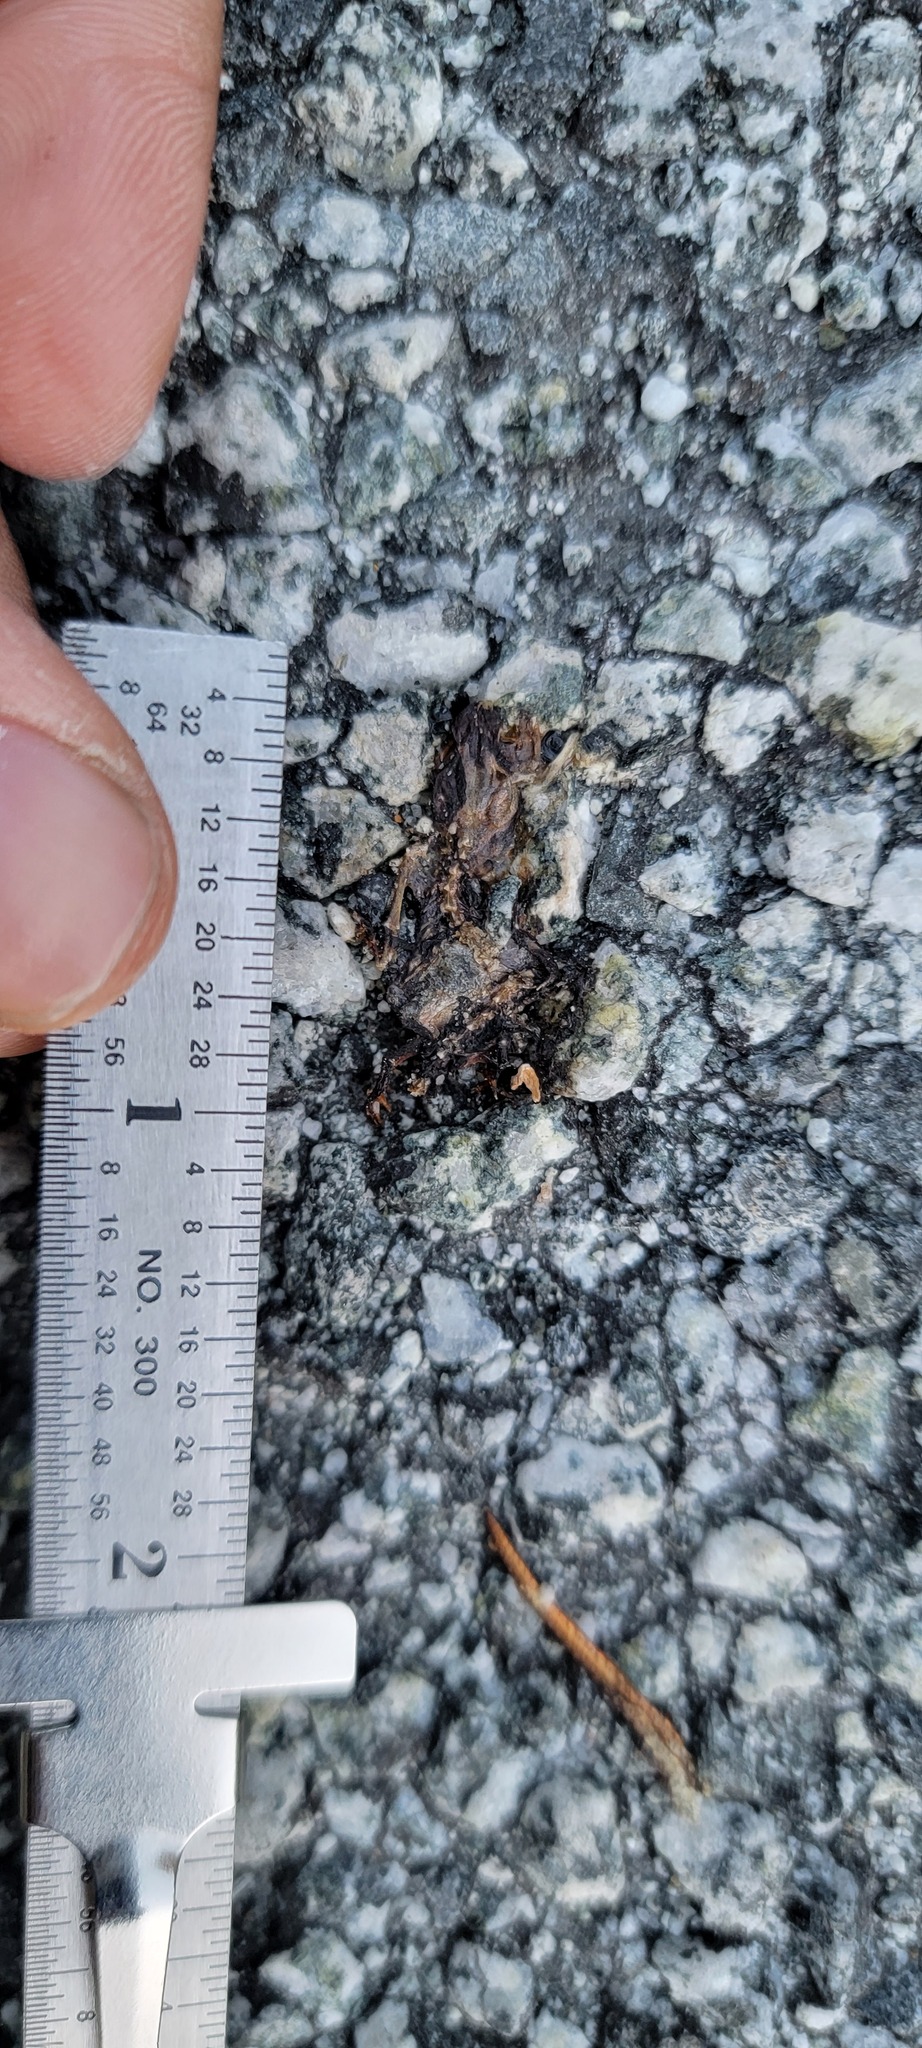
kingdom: Animalia
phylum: Chordata
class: Amphibia
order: Caudata
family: Salamandridae
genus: Taricha
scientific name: Taricha
